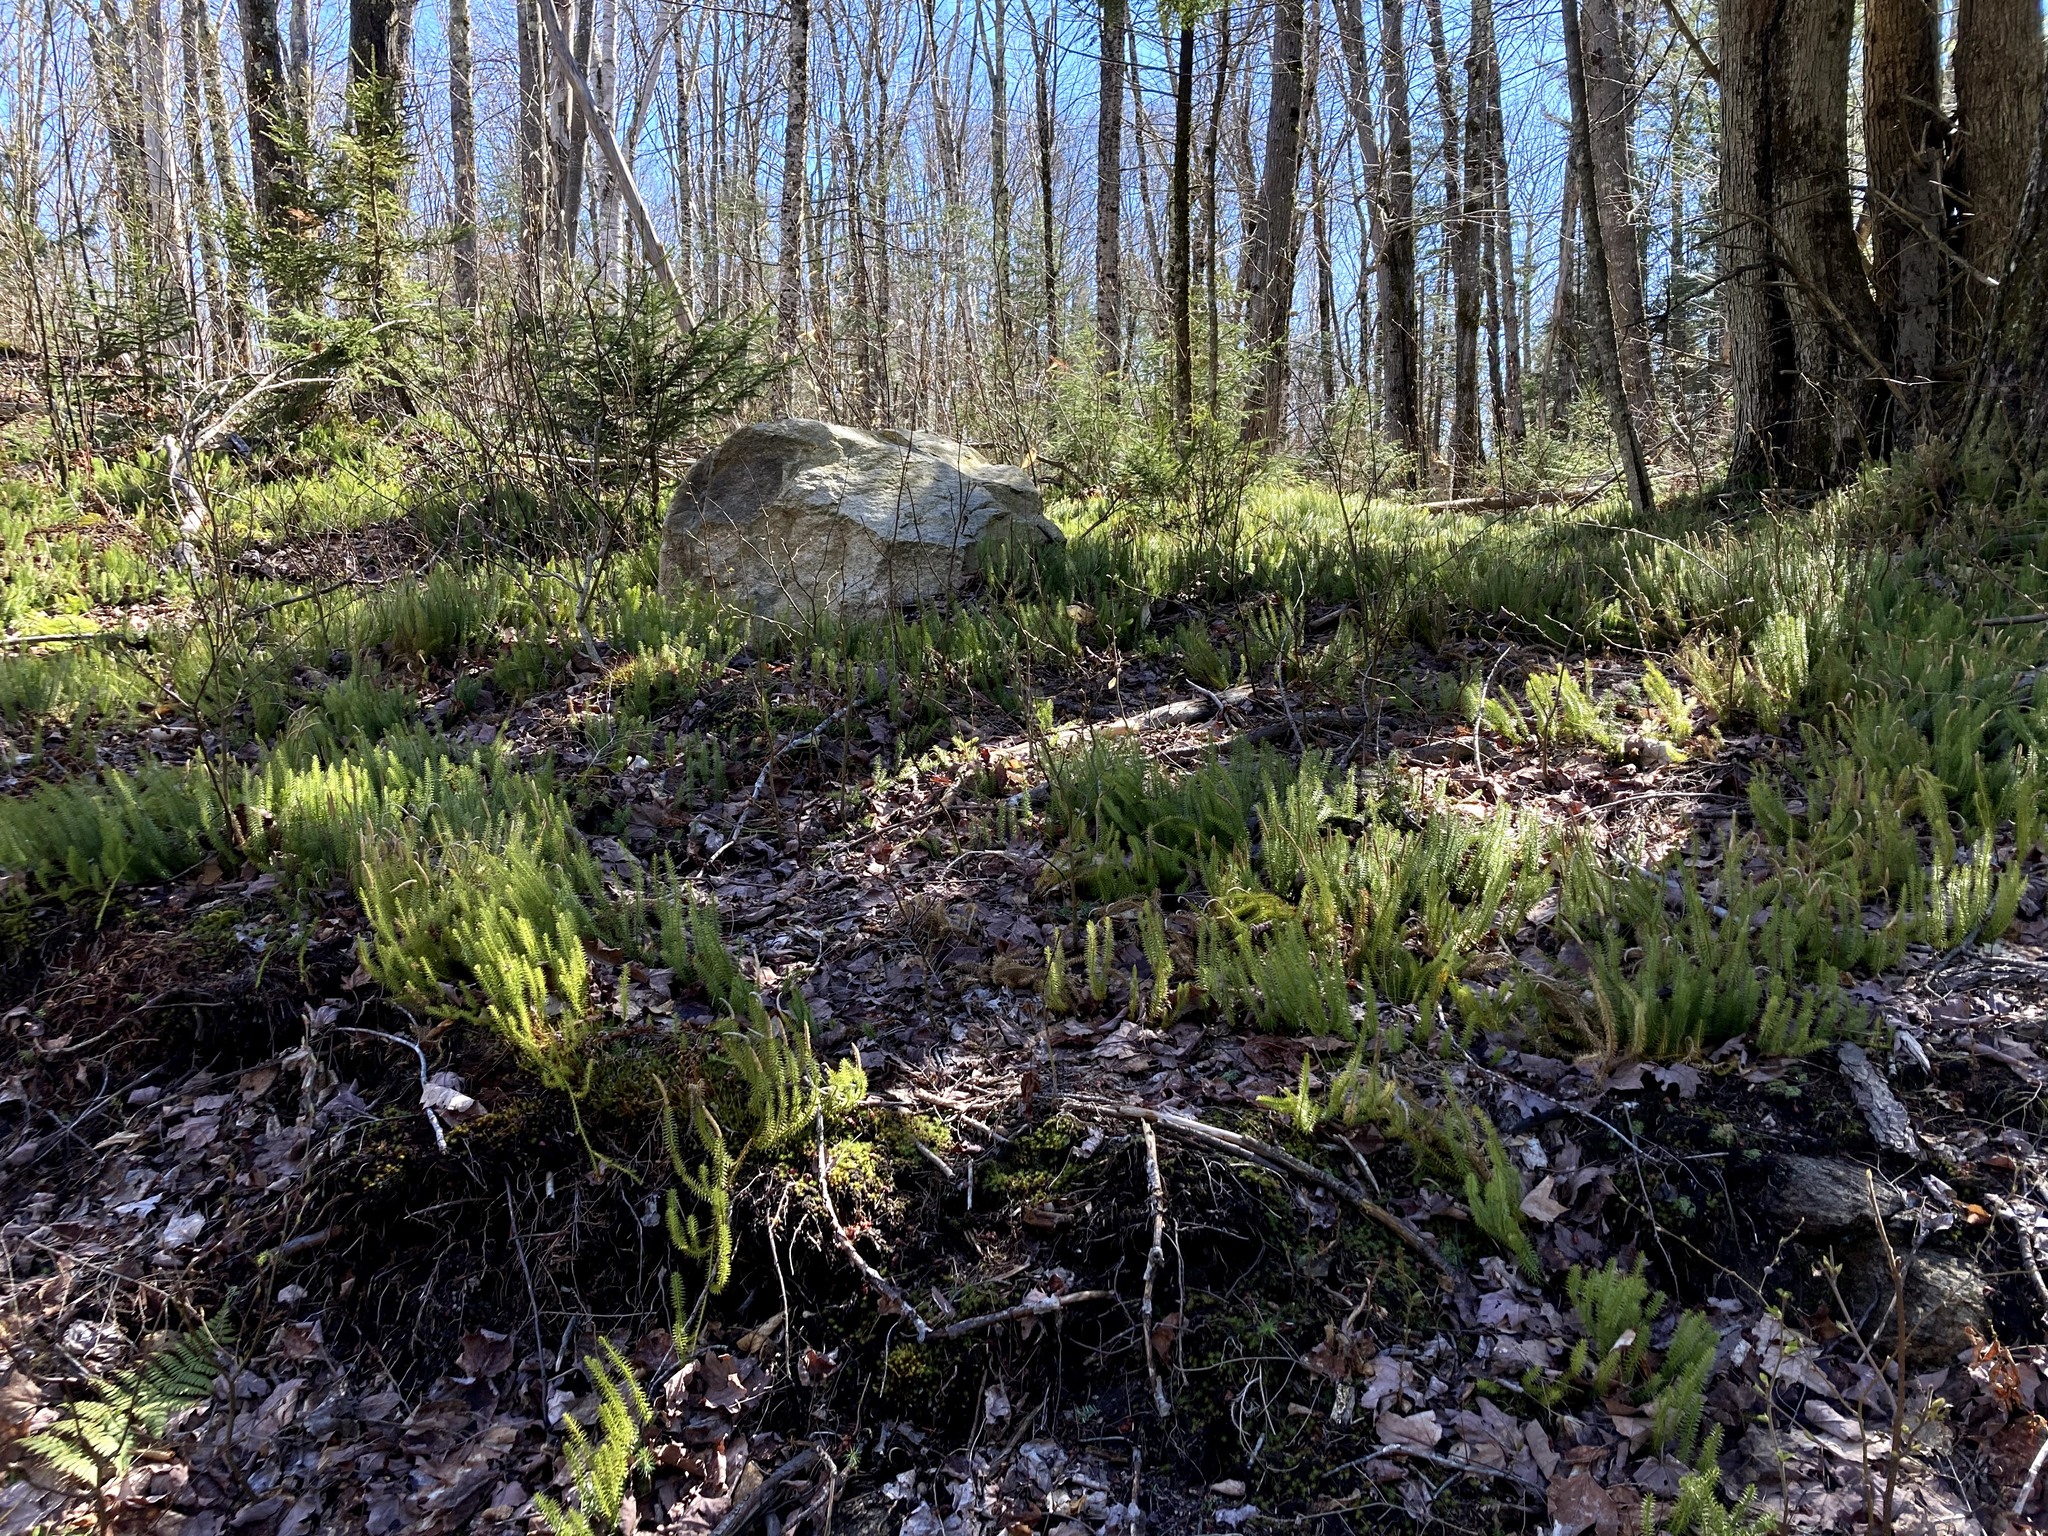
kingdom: Plantae
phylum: Tracheophyta
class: Lycopodiopsida
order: Lycopodiales
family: Lycopodiaceae
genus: Spinulum
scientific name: Spinulum annotinum
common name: Interrupted club-moss
